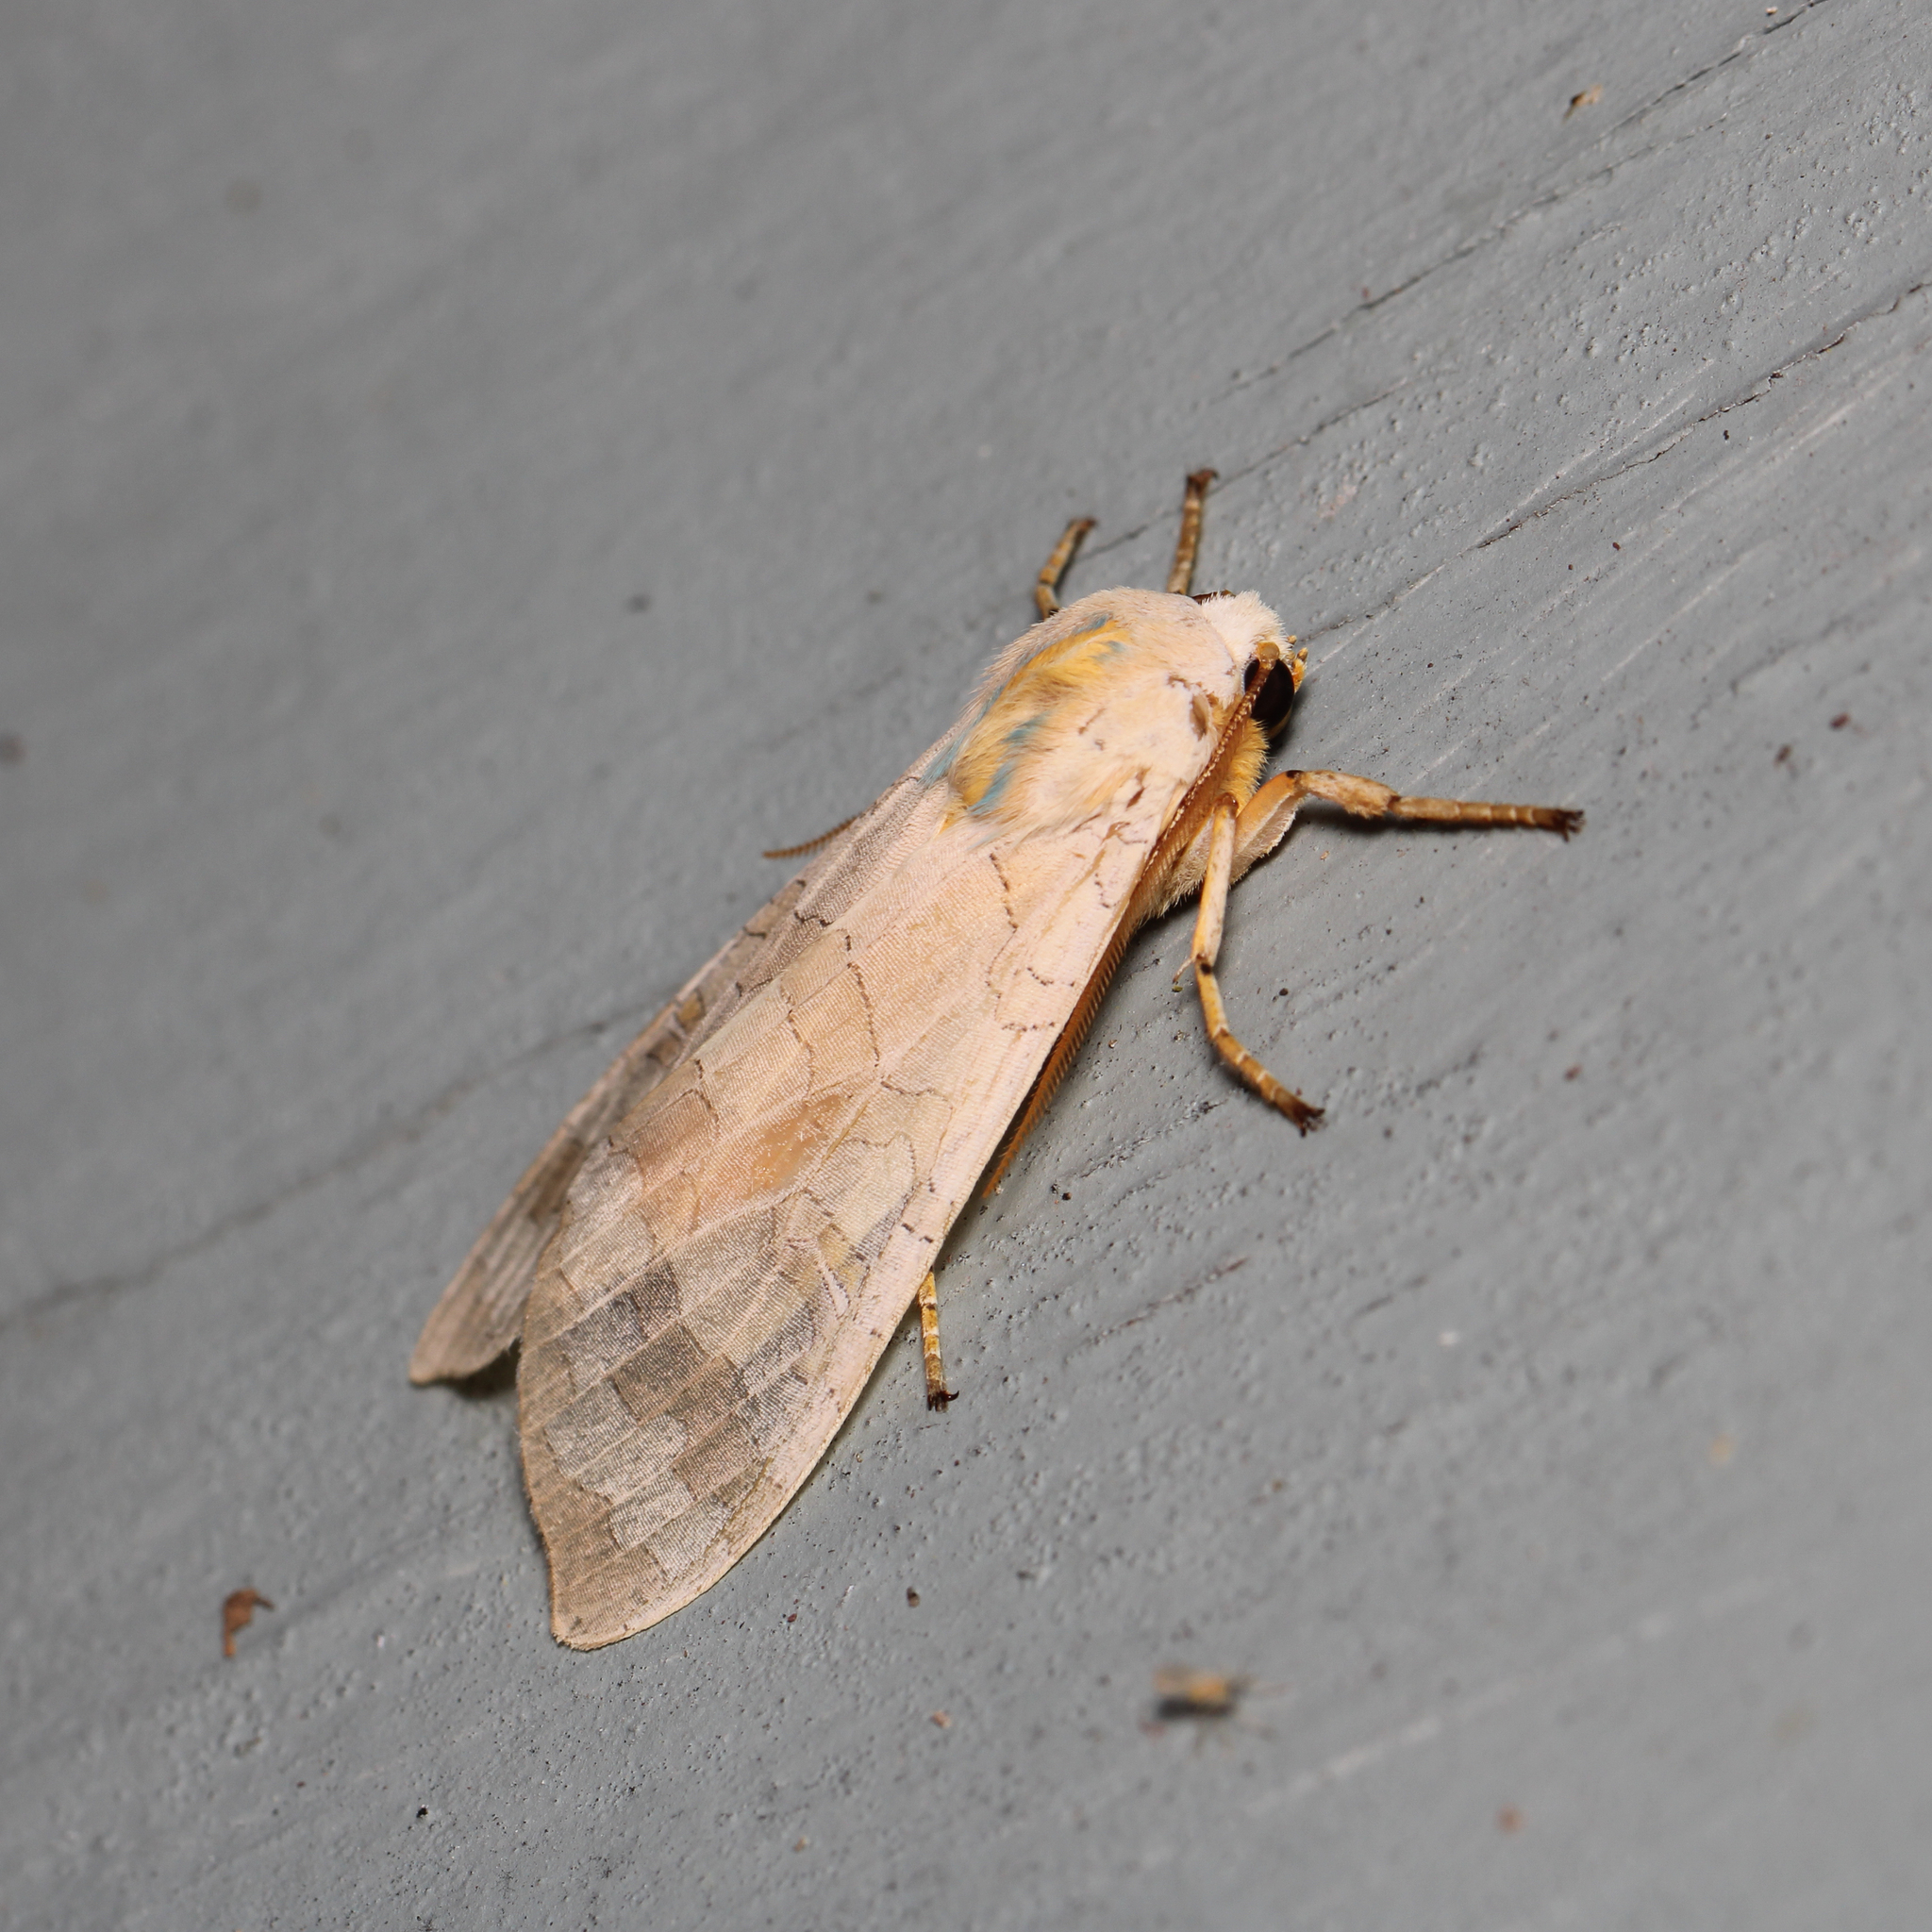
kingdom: Animalia
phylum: Arthropoda
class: Insecta
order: Lepidoptera
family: Erebidae
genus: Halysidota
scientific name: Halysidota
